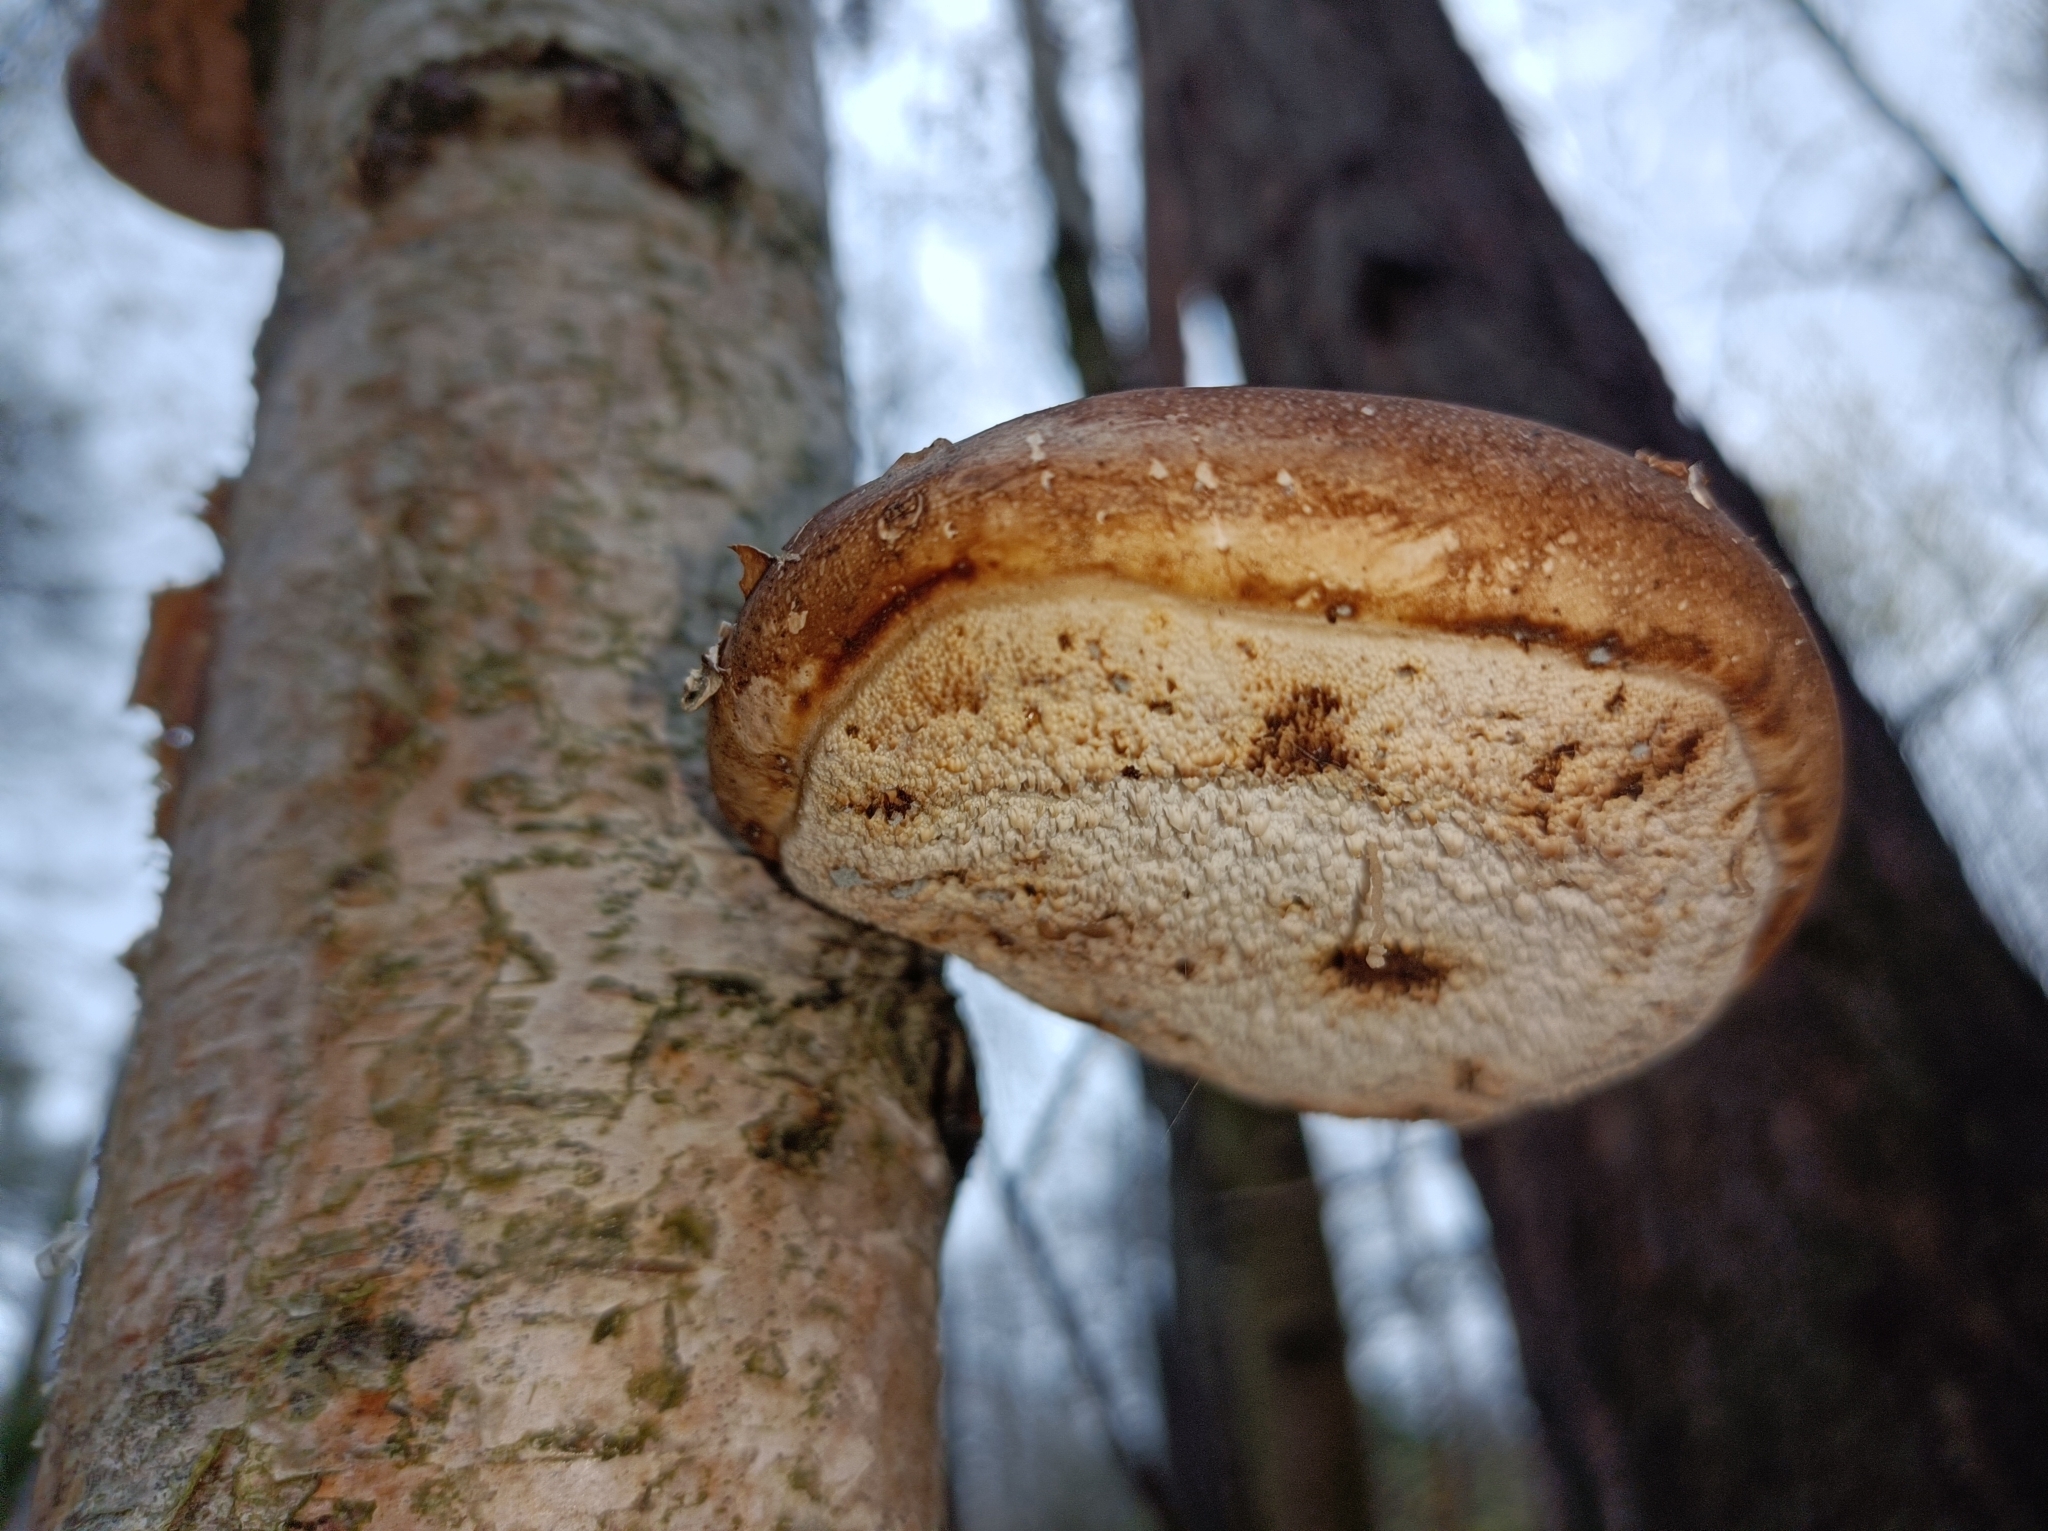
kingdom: Fungi
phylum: Basidiomycota
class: Agaricomycetes
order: Polyporales
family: Fomitopsidaceae
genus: Fomitopsis
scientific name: Fomitopsis betulina
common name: Birch polypore
